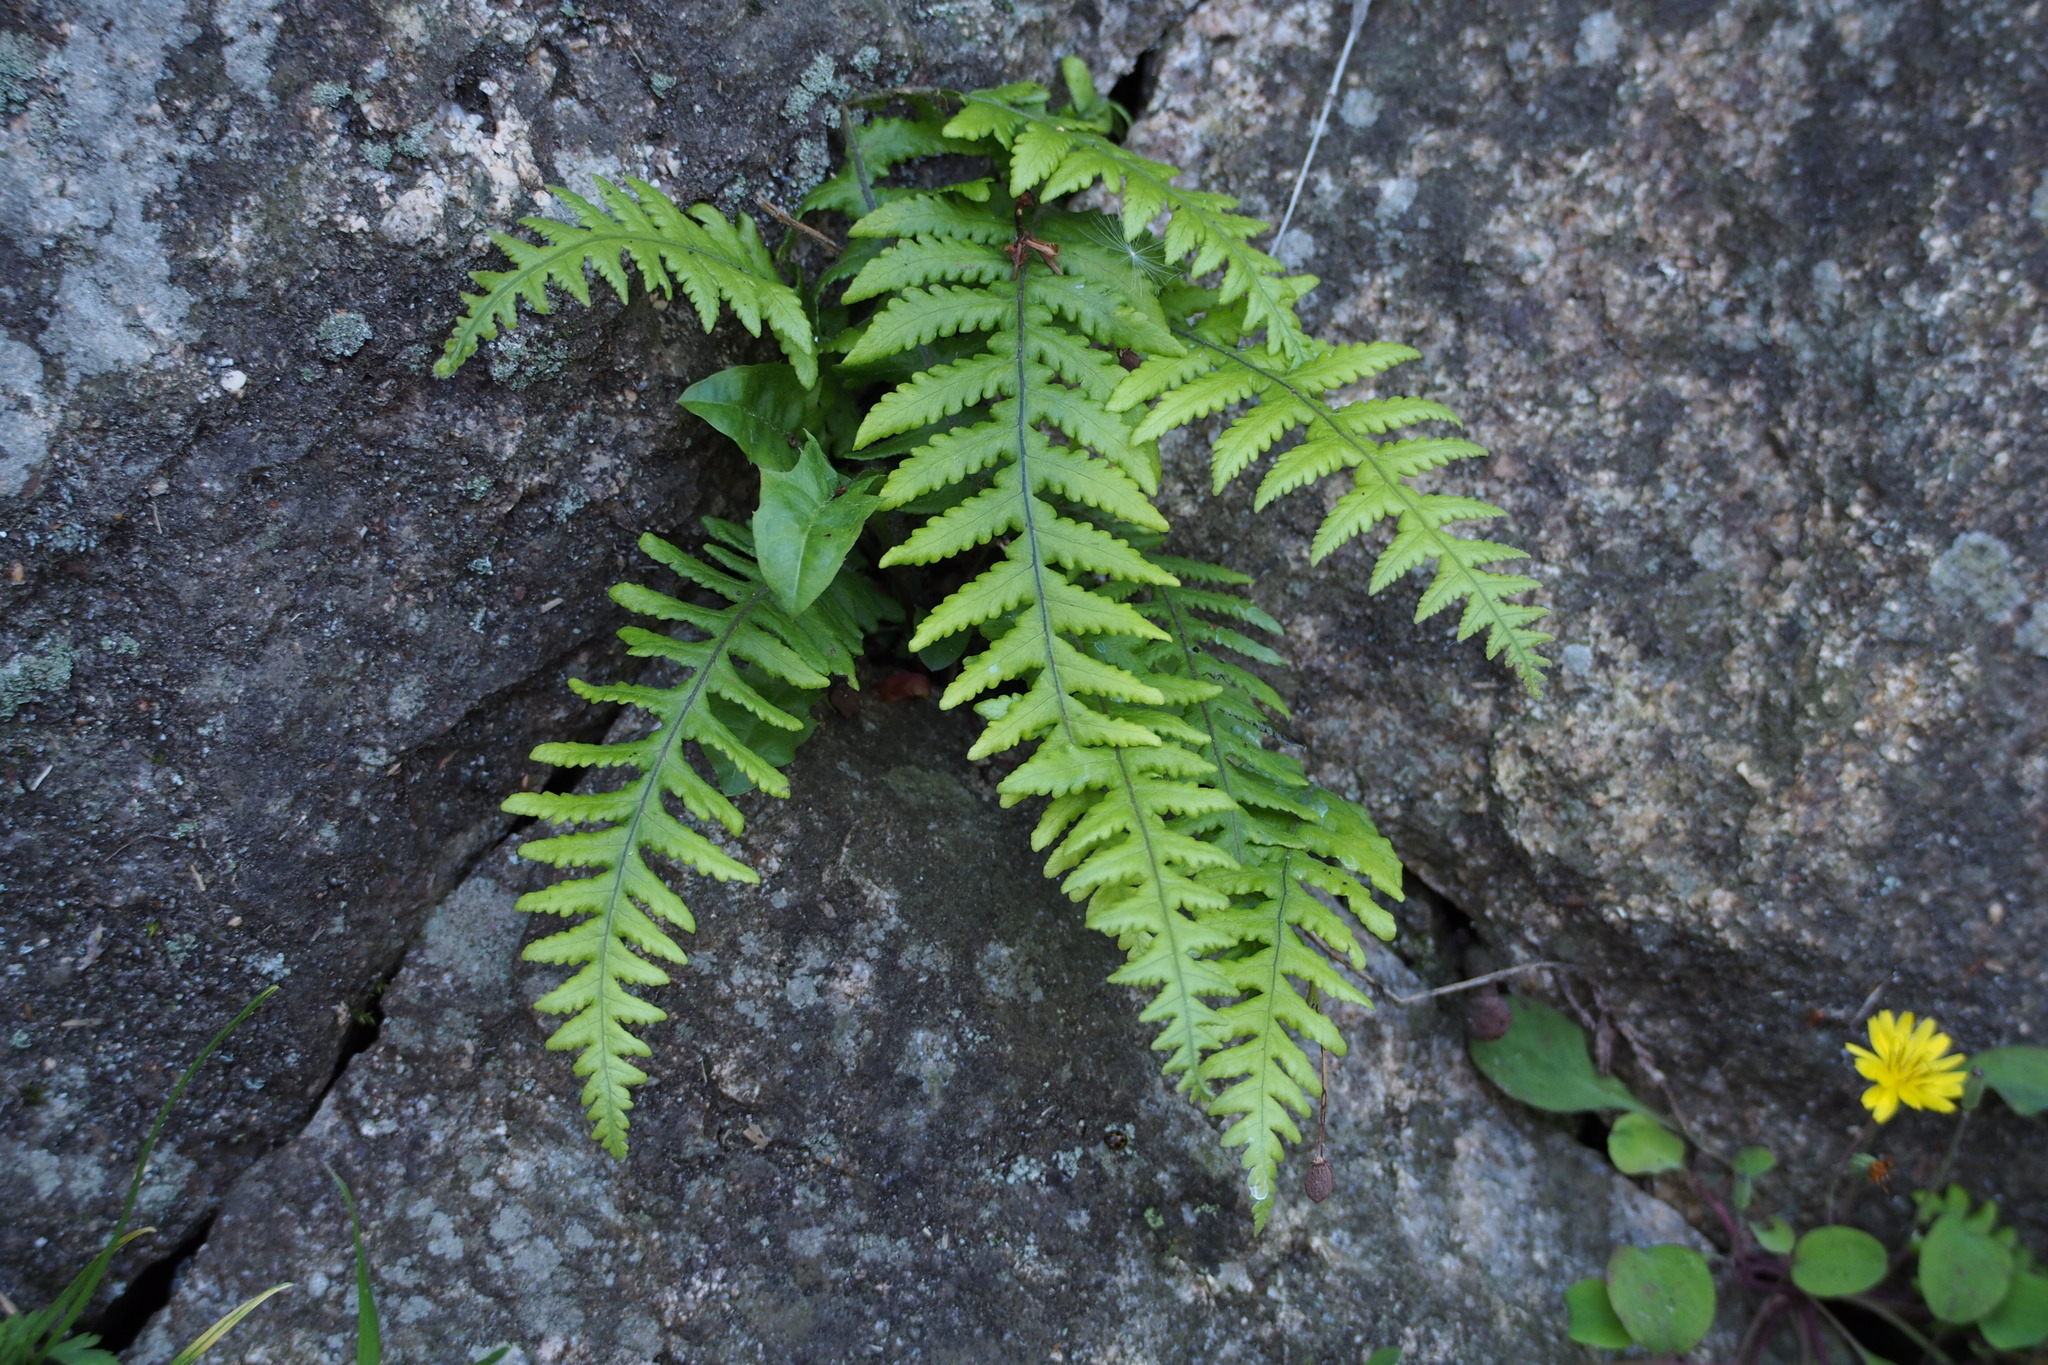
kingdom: Plantae
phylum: Tracheophyta
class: Polypodiopsida
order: Polypodiales
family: Thelypteridaceae
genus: Phegopteris
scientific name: Phegopteris decursive-pinnata
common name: Japanese beech fern
